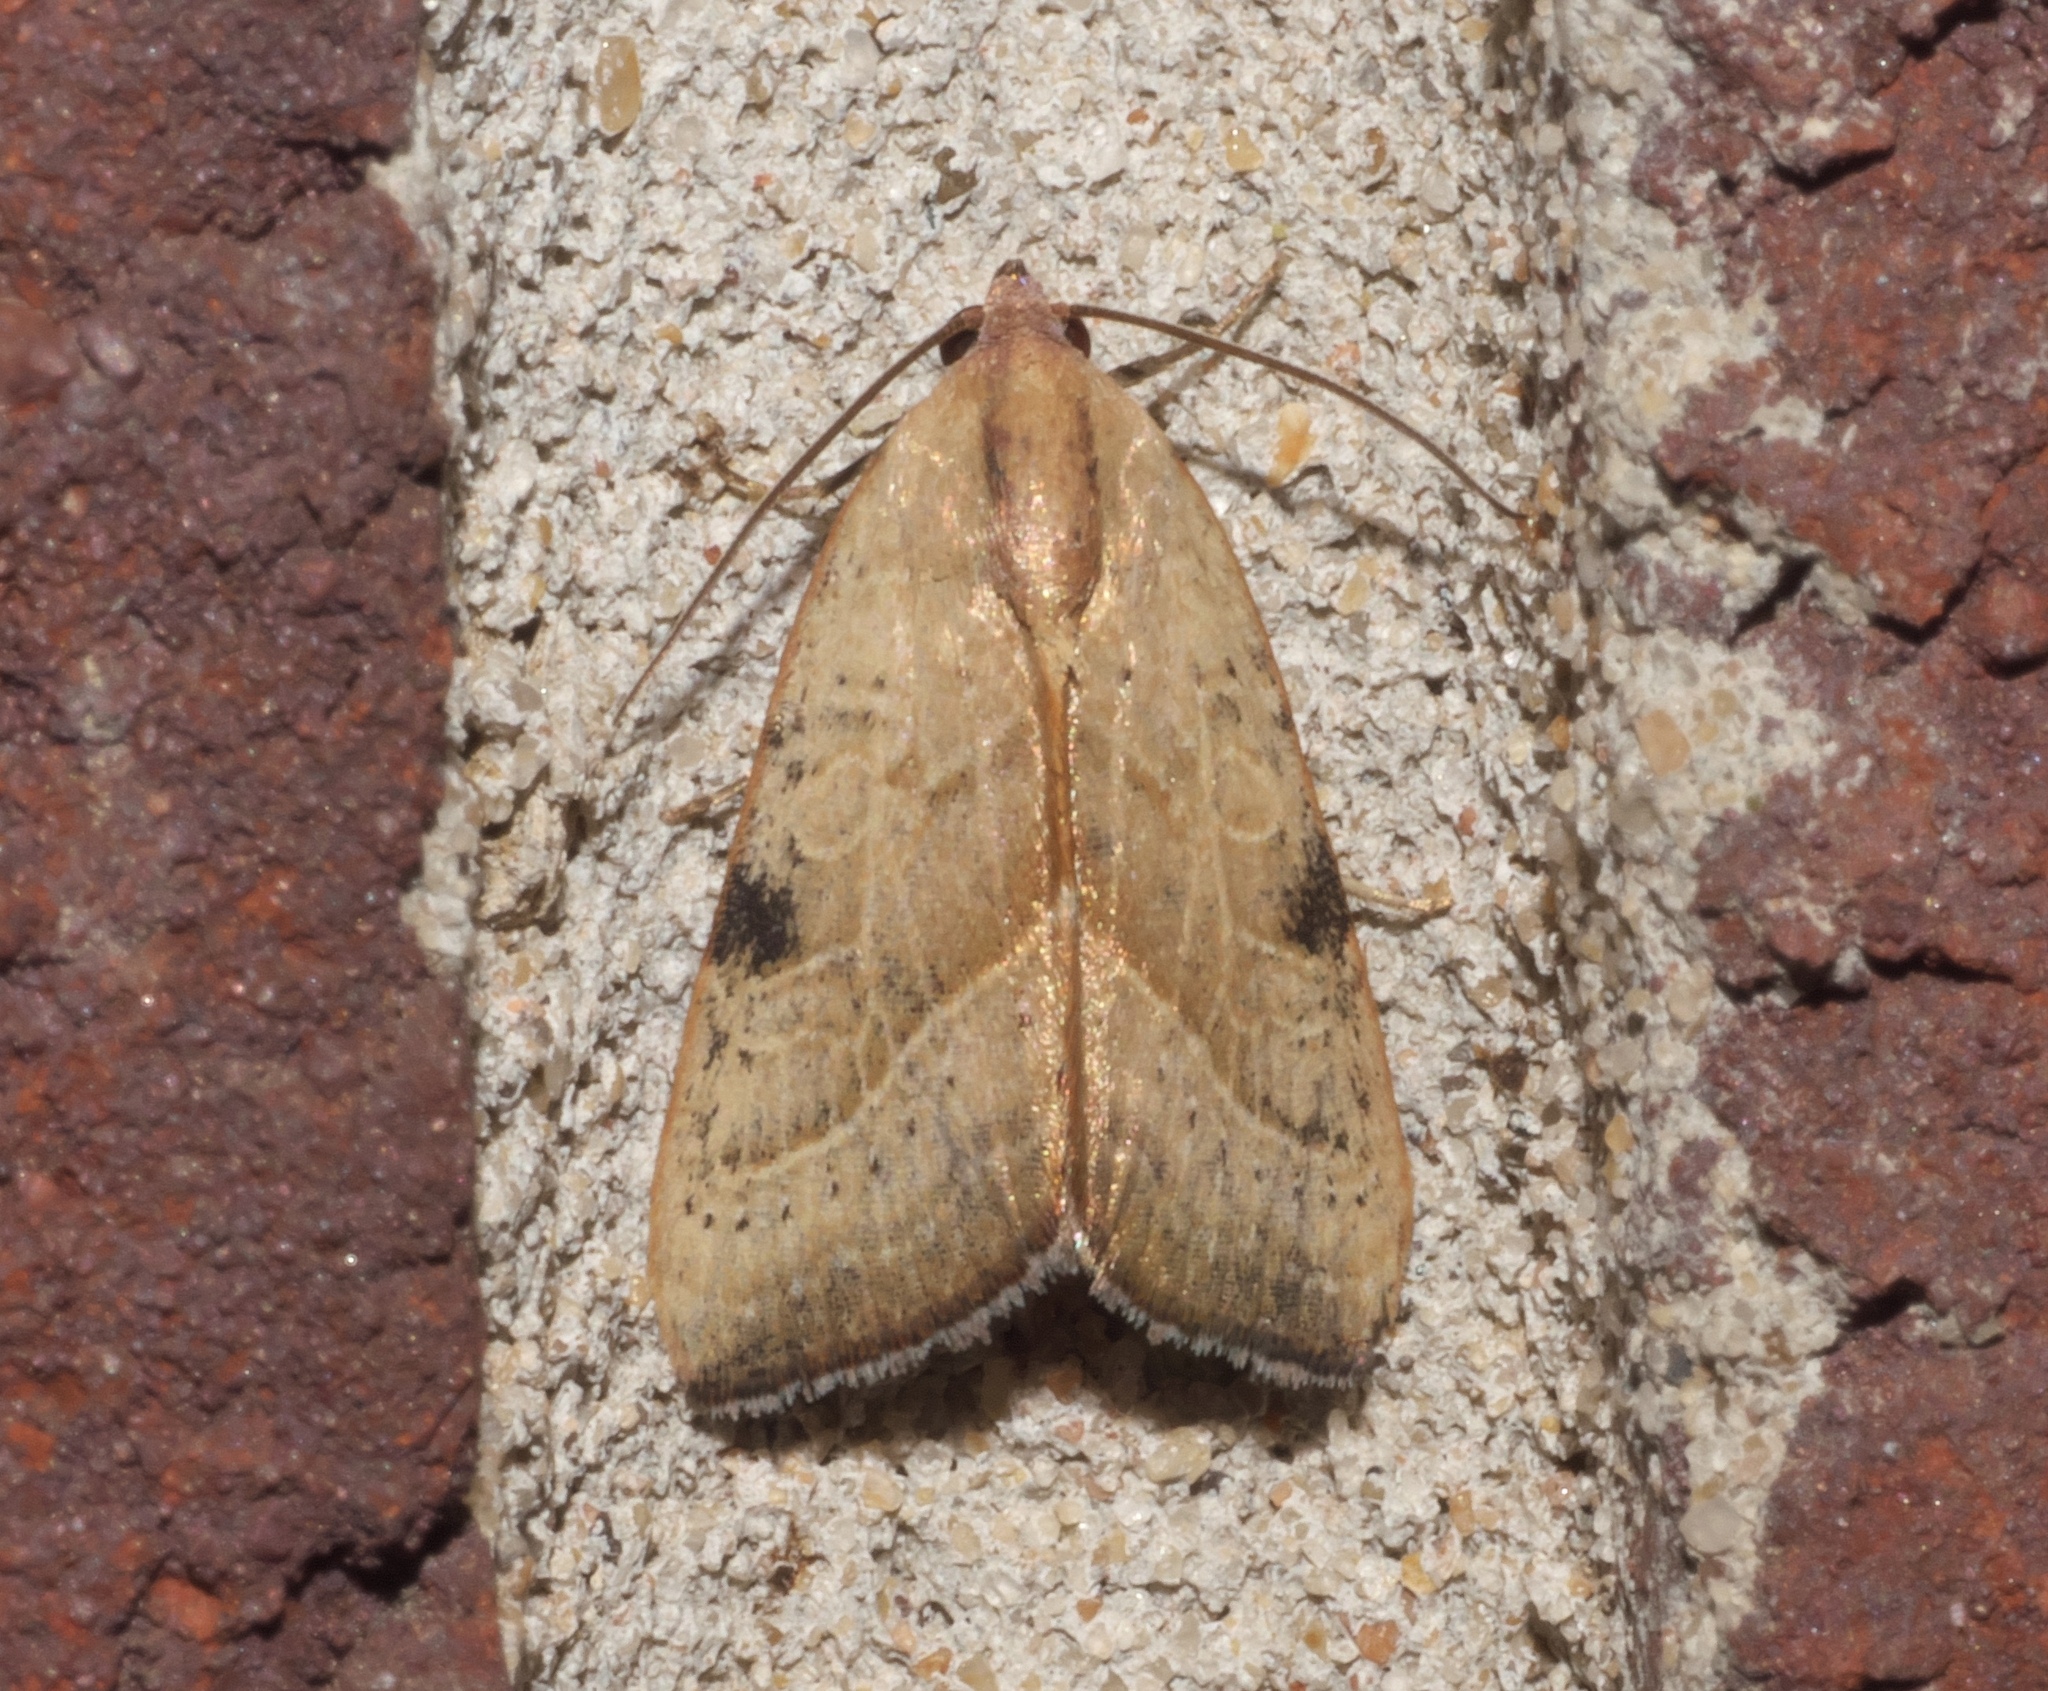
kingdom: Animalia
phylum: Arthropoda
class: Insecta
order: Lepidoptera
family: Noctuidae
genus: Galgula
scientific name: Galgula partita
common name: Wedgeling
